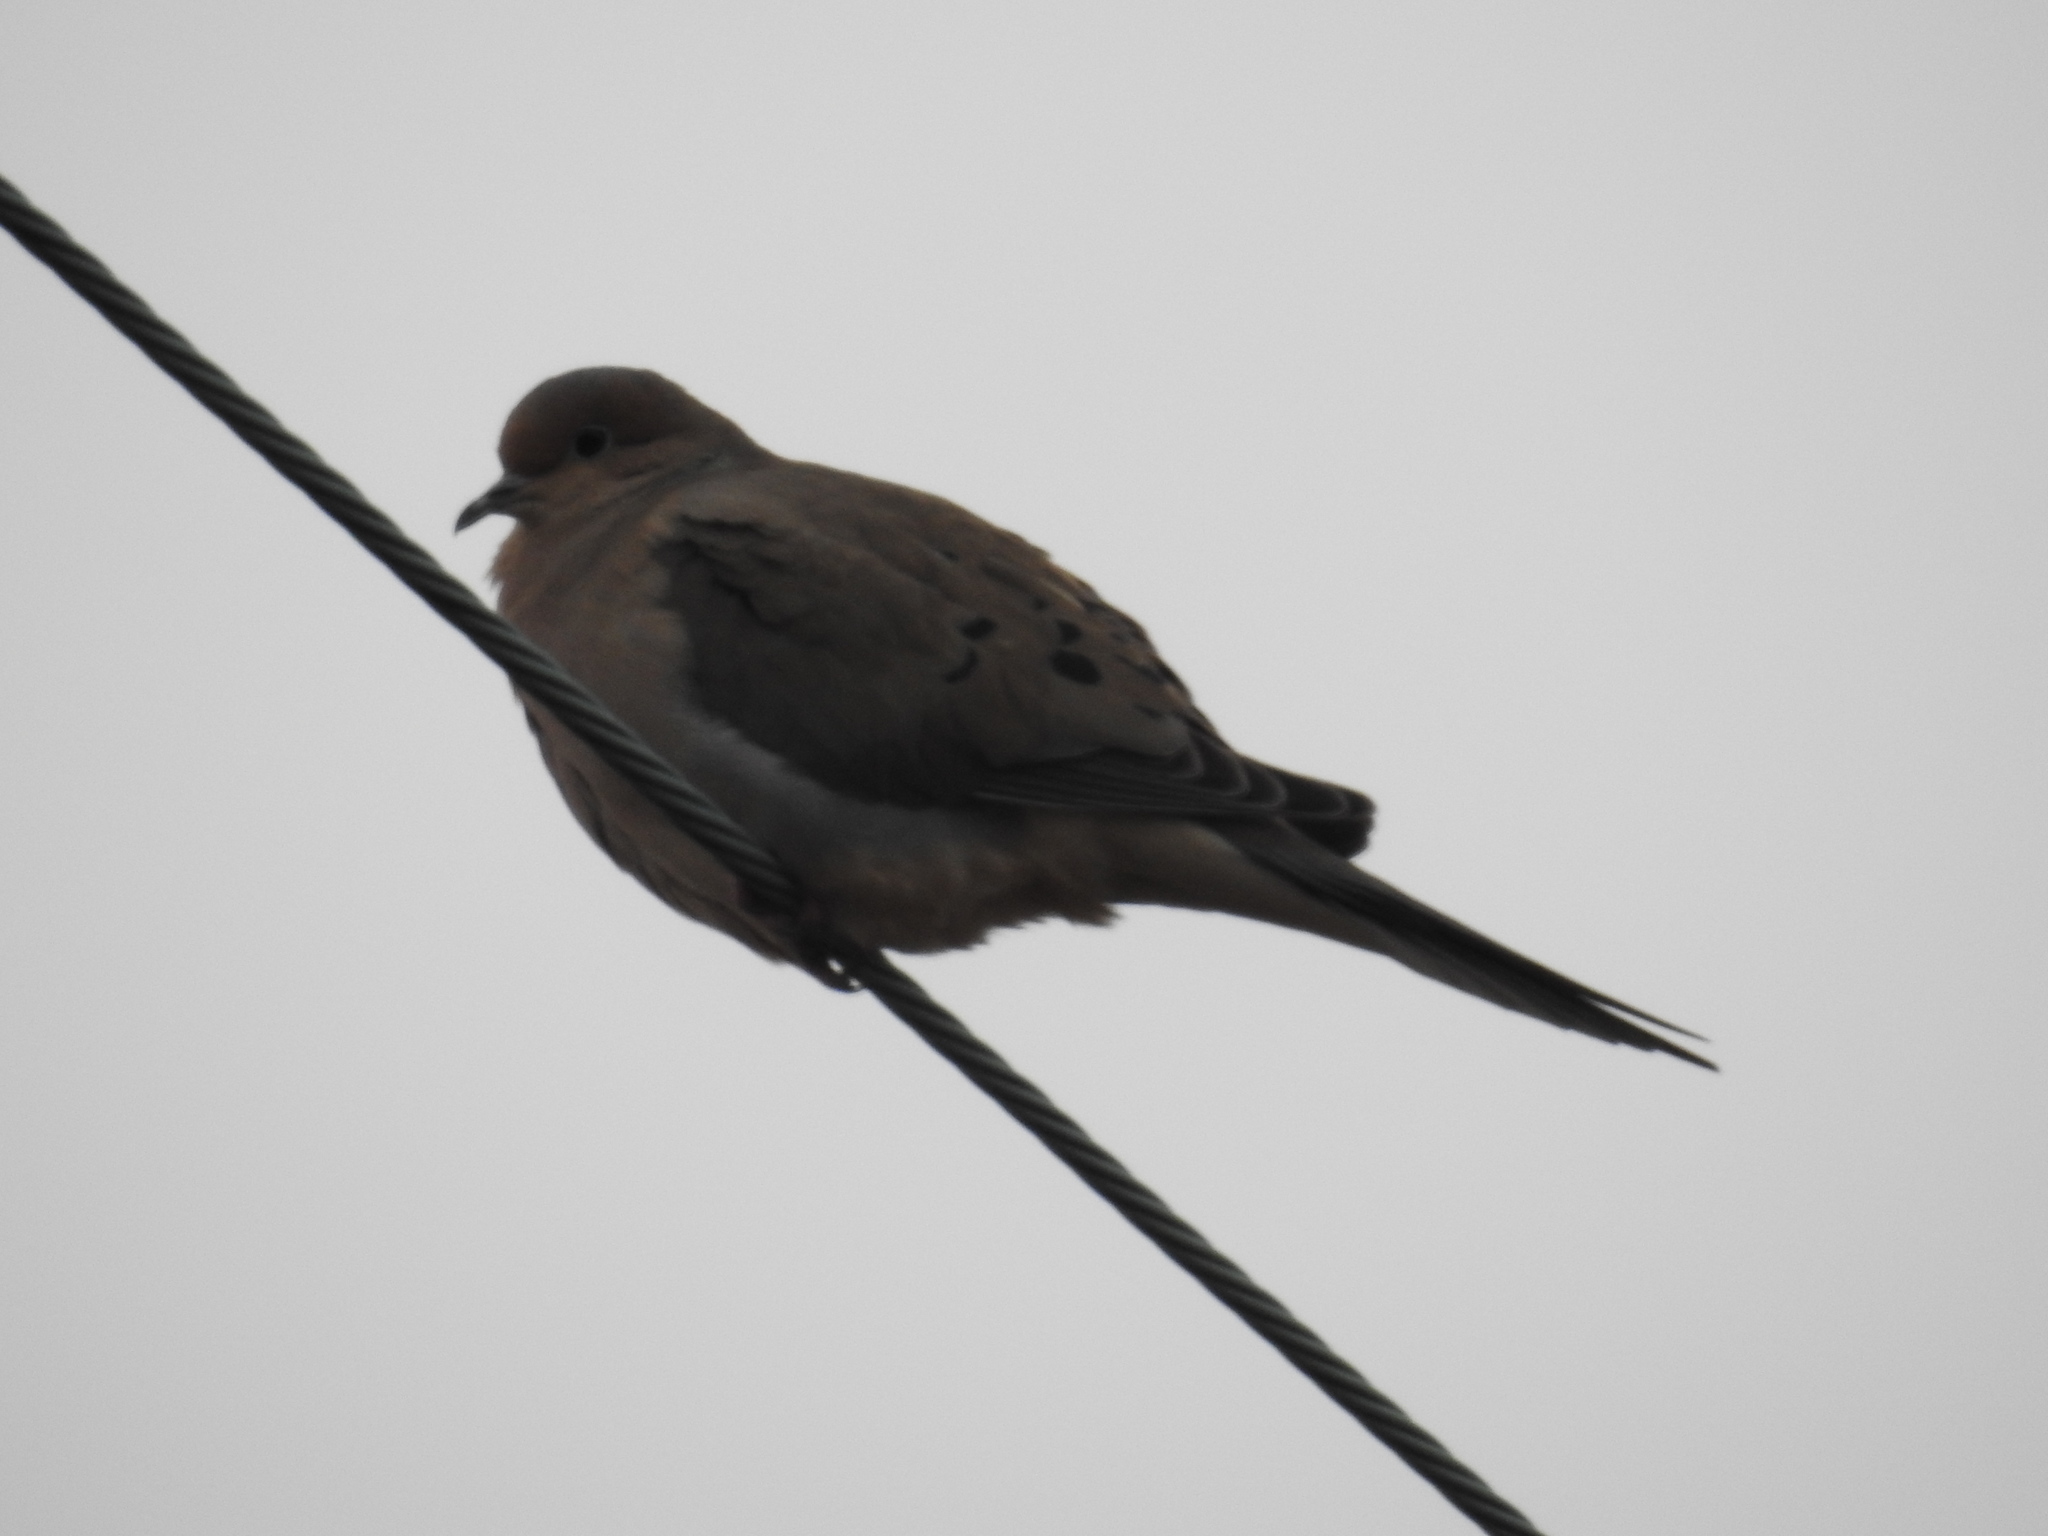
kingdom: Animalia
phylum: Chordata
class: Aves
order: Columbiformes
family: Columbidae
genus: Zenaida
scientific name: Zenaida macroura
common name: Mourning dove
